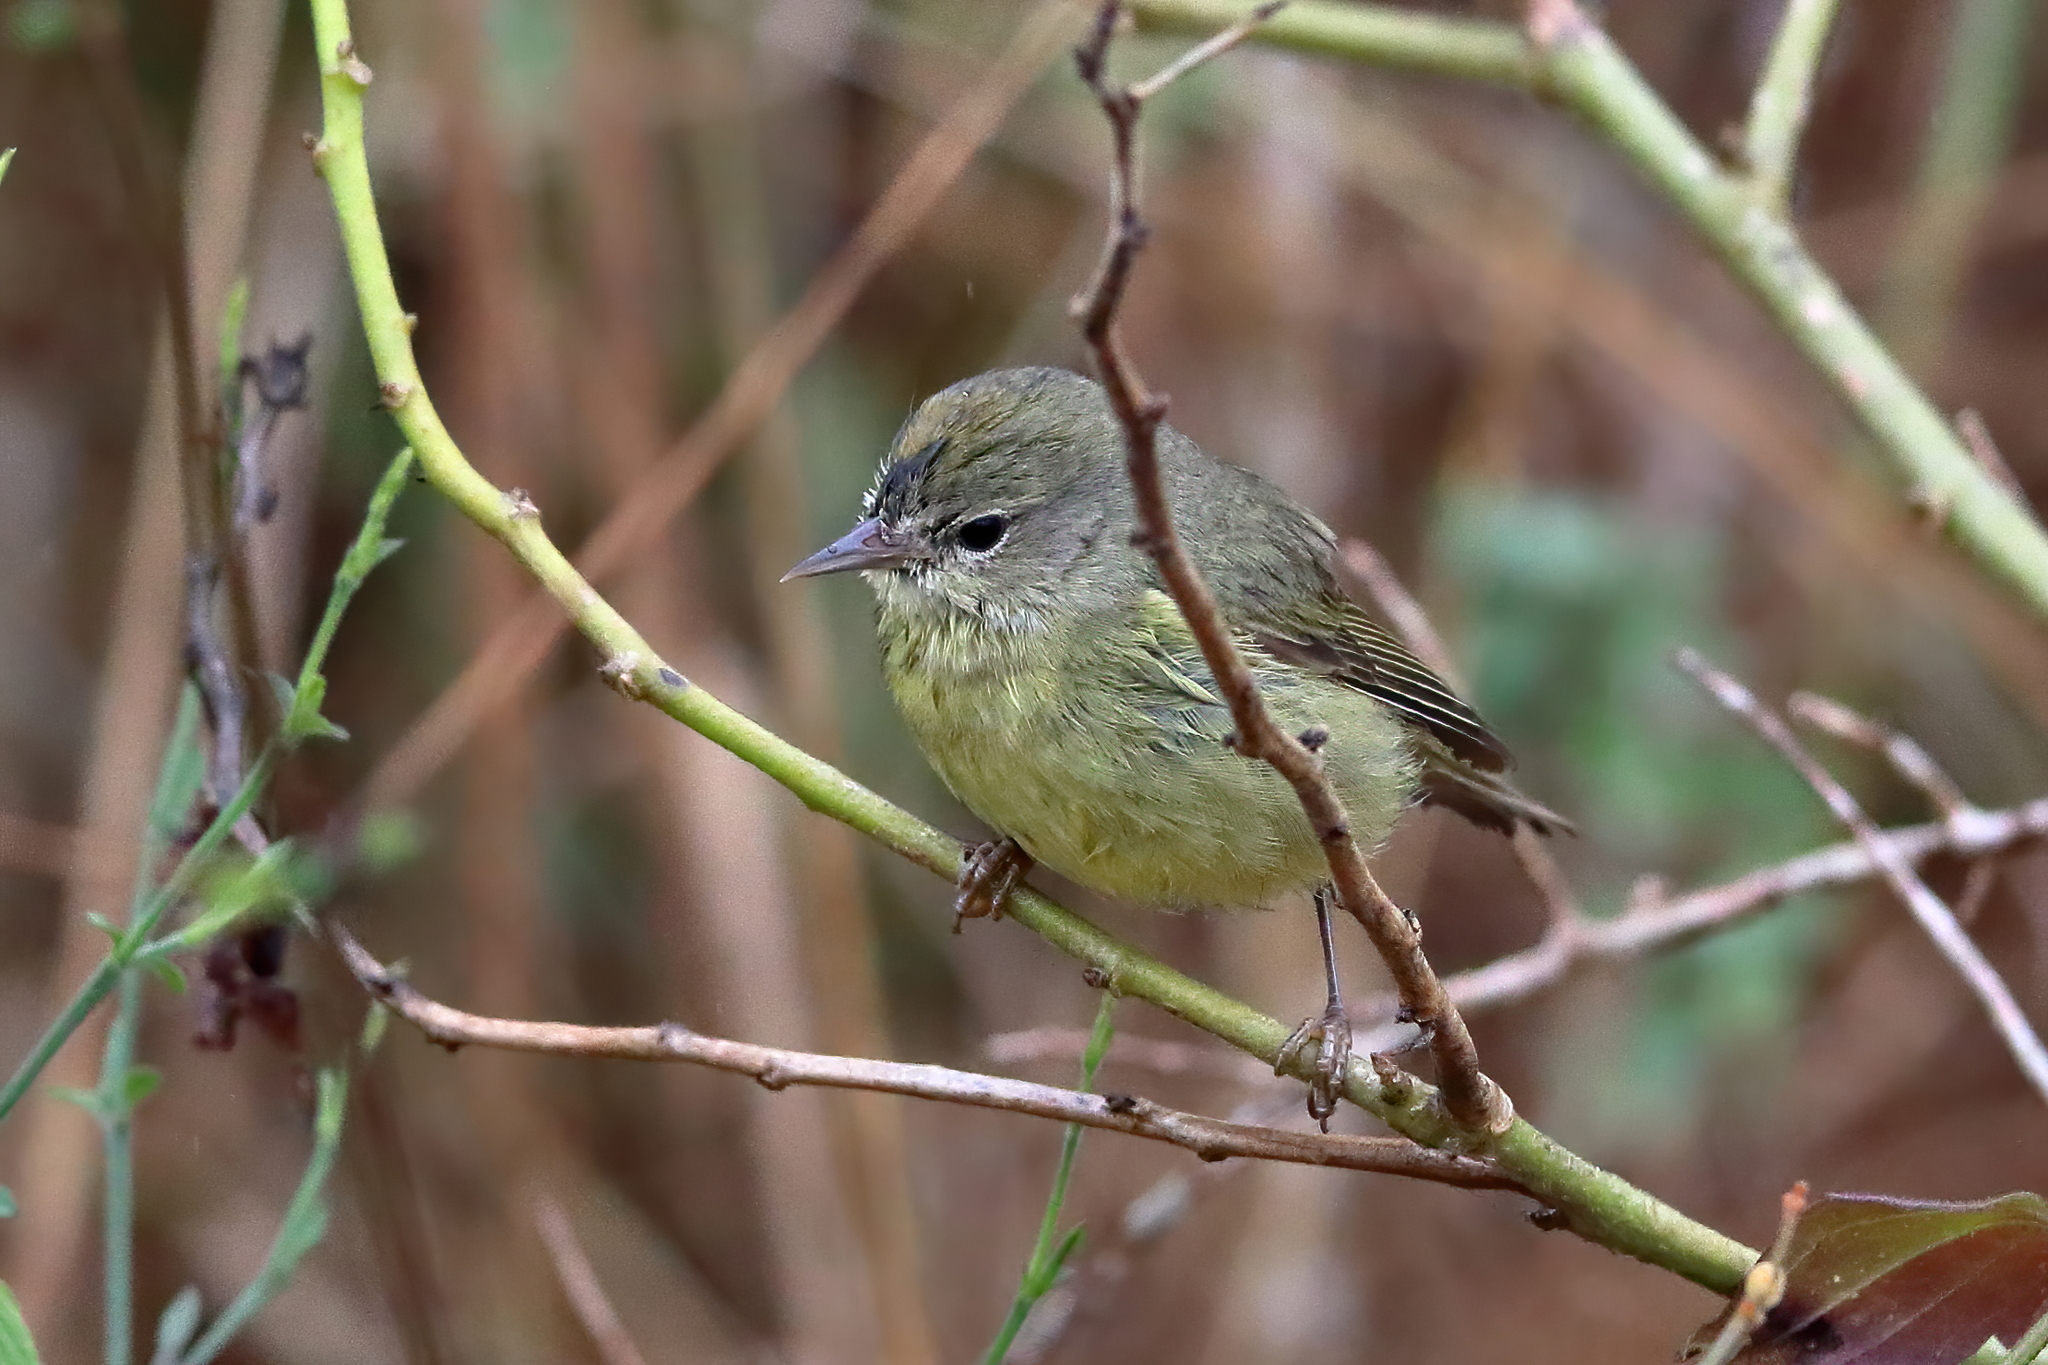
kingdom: Animalia
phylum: Chordata
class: Aves
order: Passeriformes
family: Parulidae
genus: Leiothlypis
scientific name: Leiothlypis celata
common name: Orange-crowned warbler
